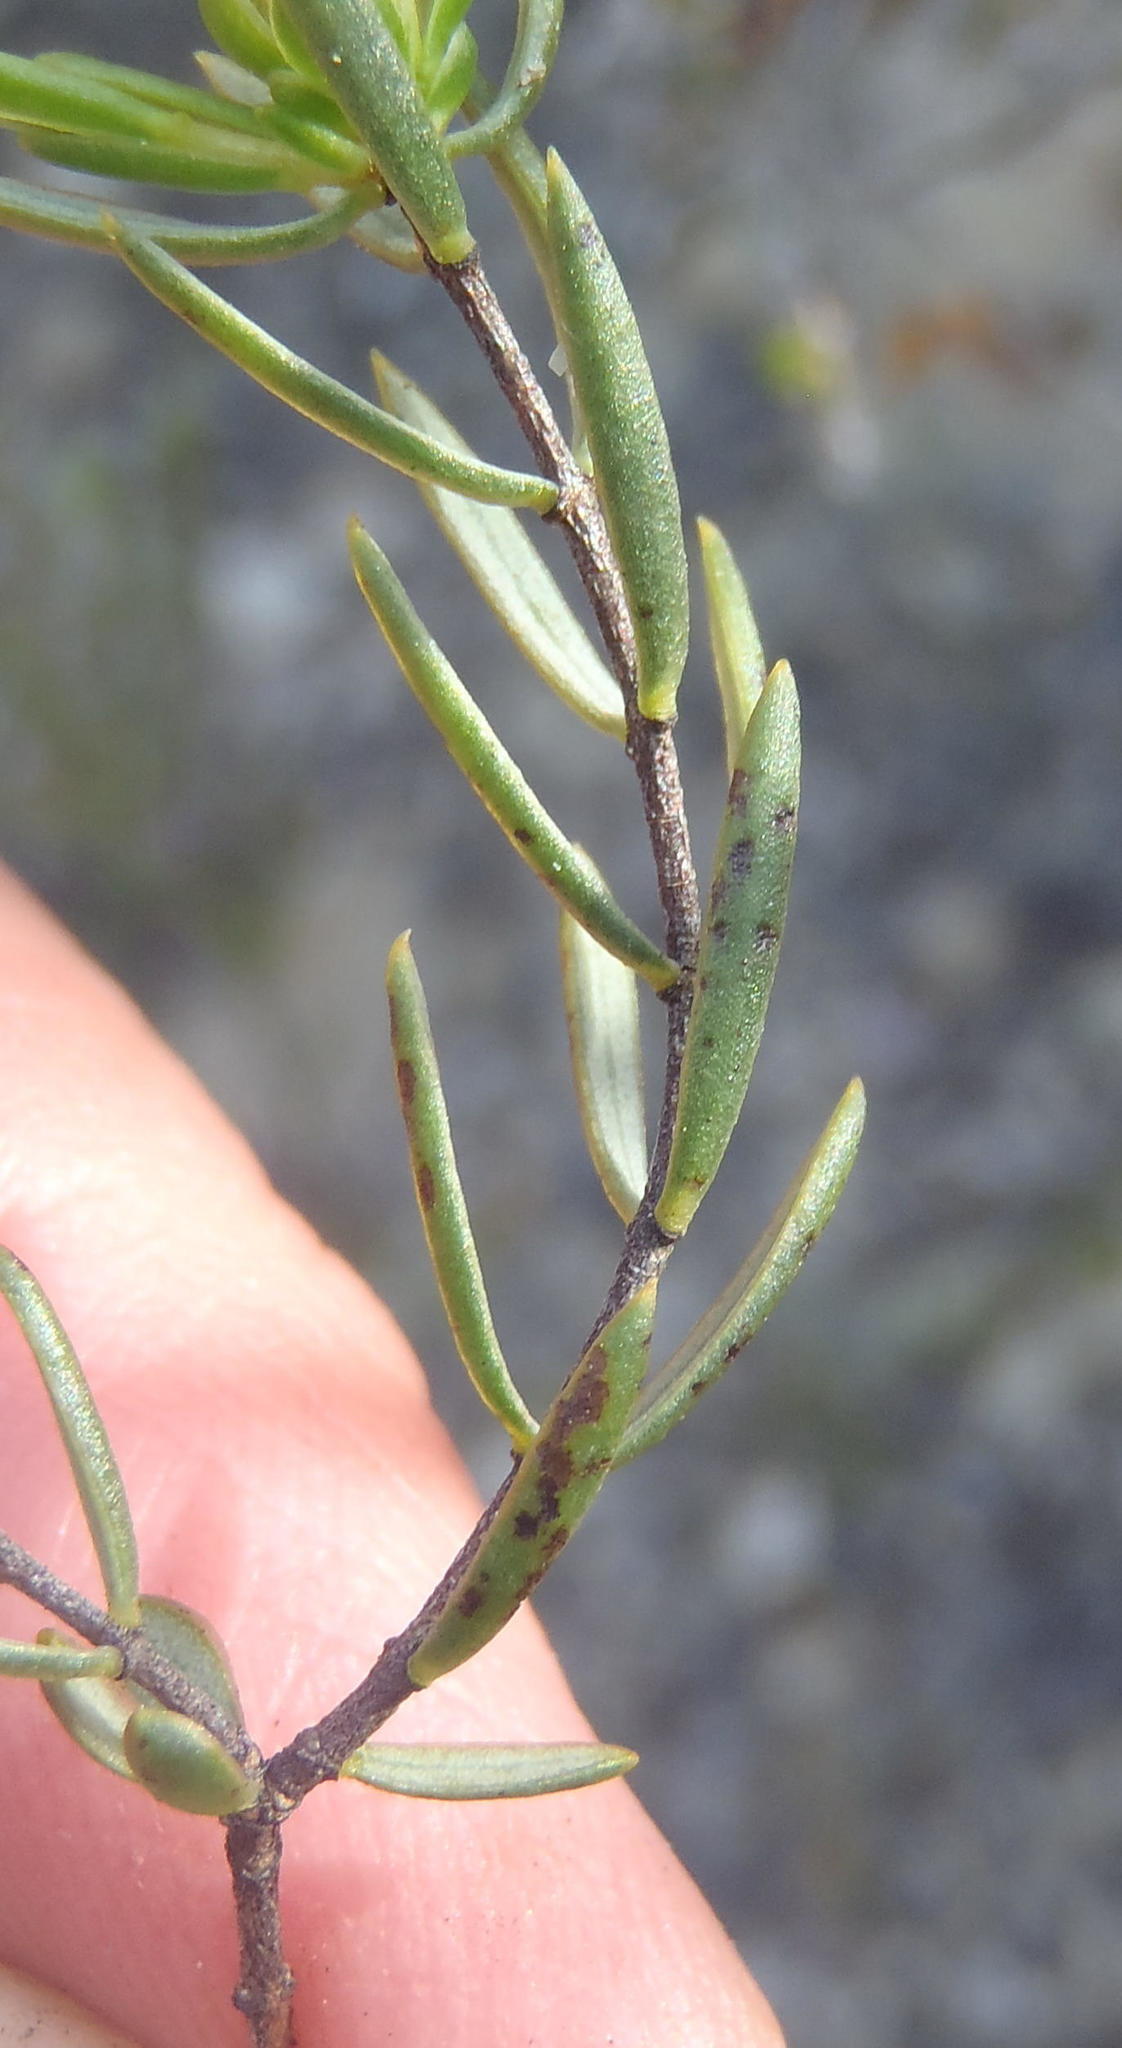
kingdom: Plantae
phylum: Tracheophyta
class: Magnoliopsida
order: Malvales
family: Thymelaeaceae
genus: Lachnaea
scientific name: Lachnaea diosmoides
